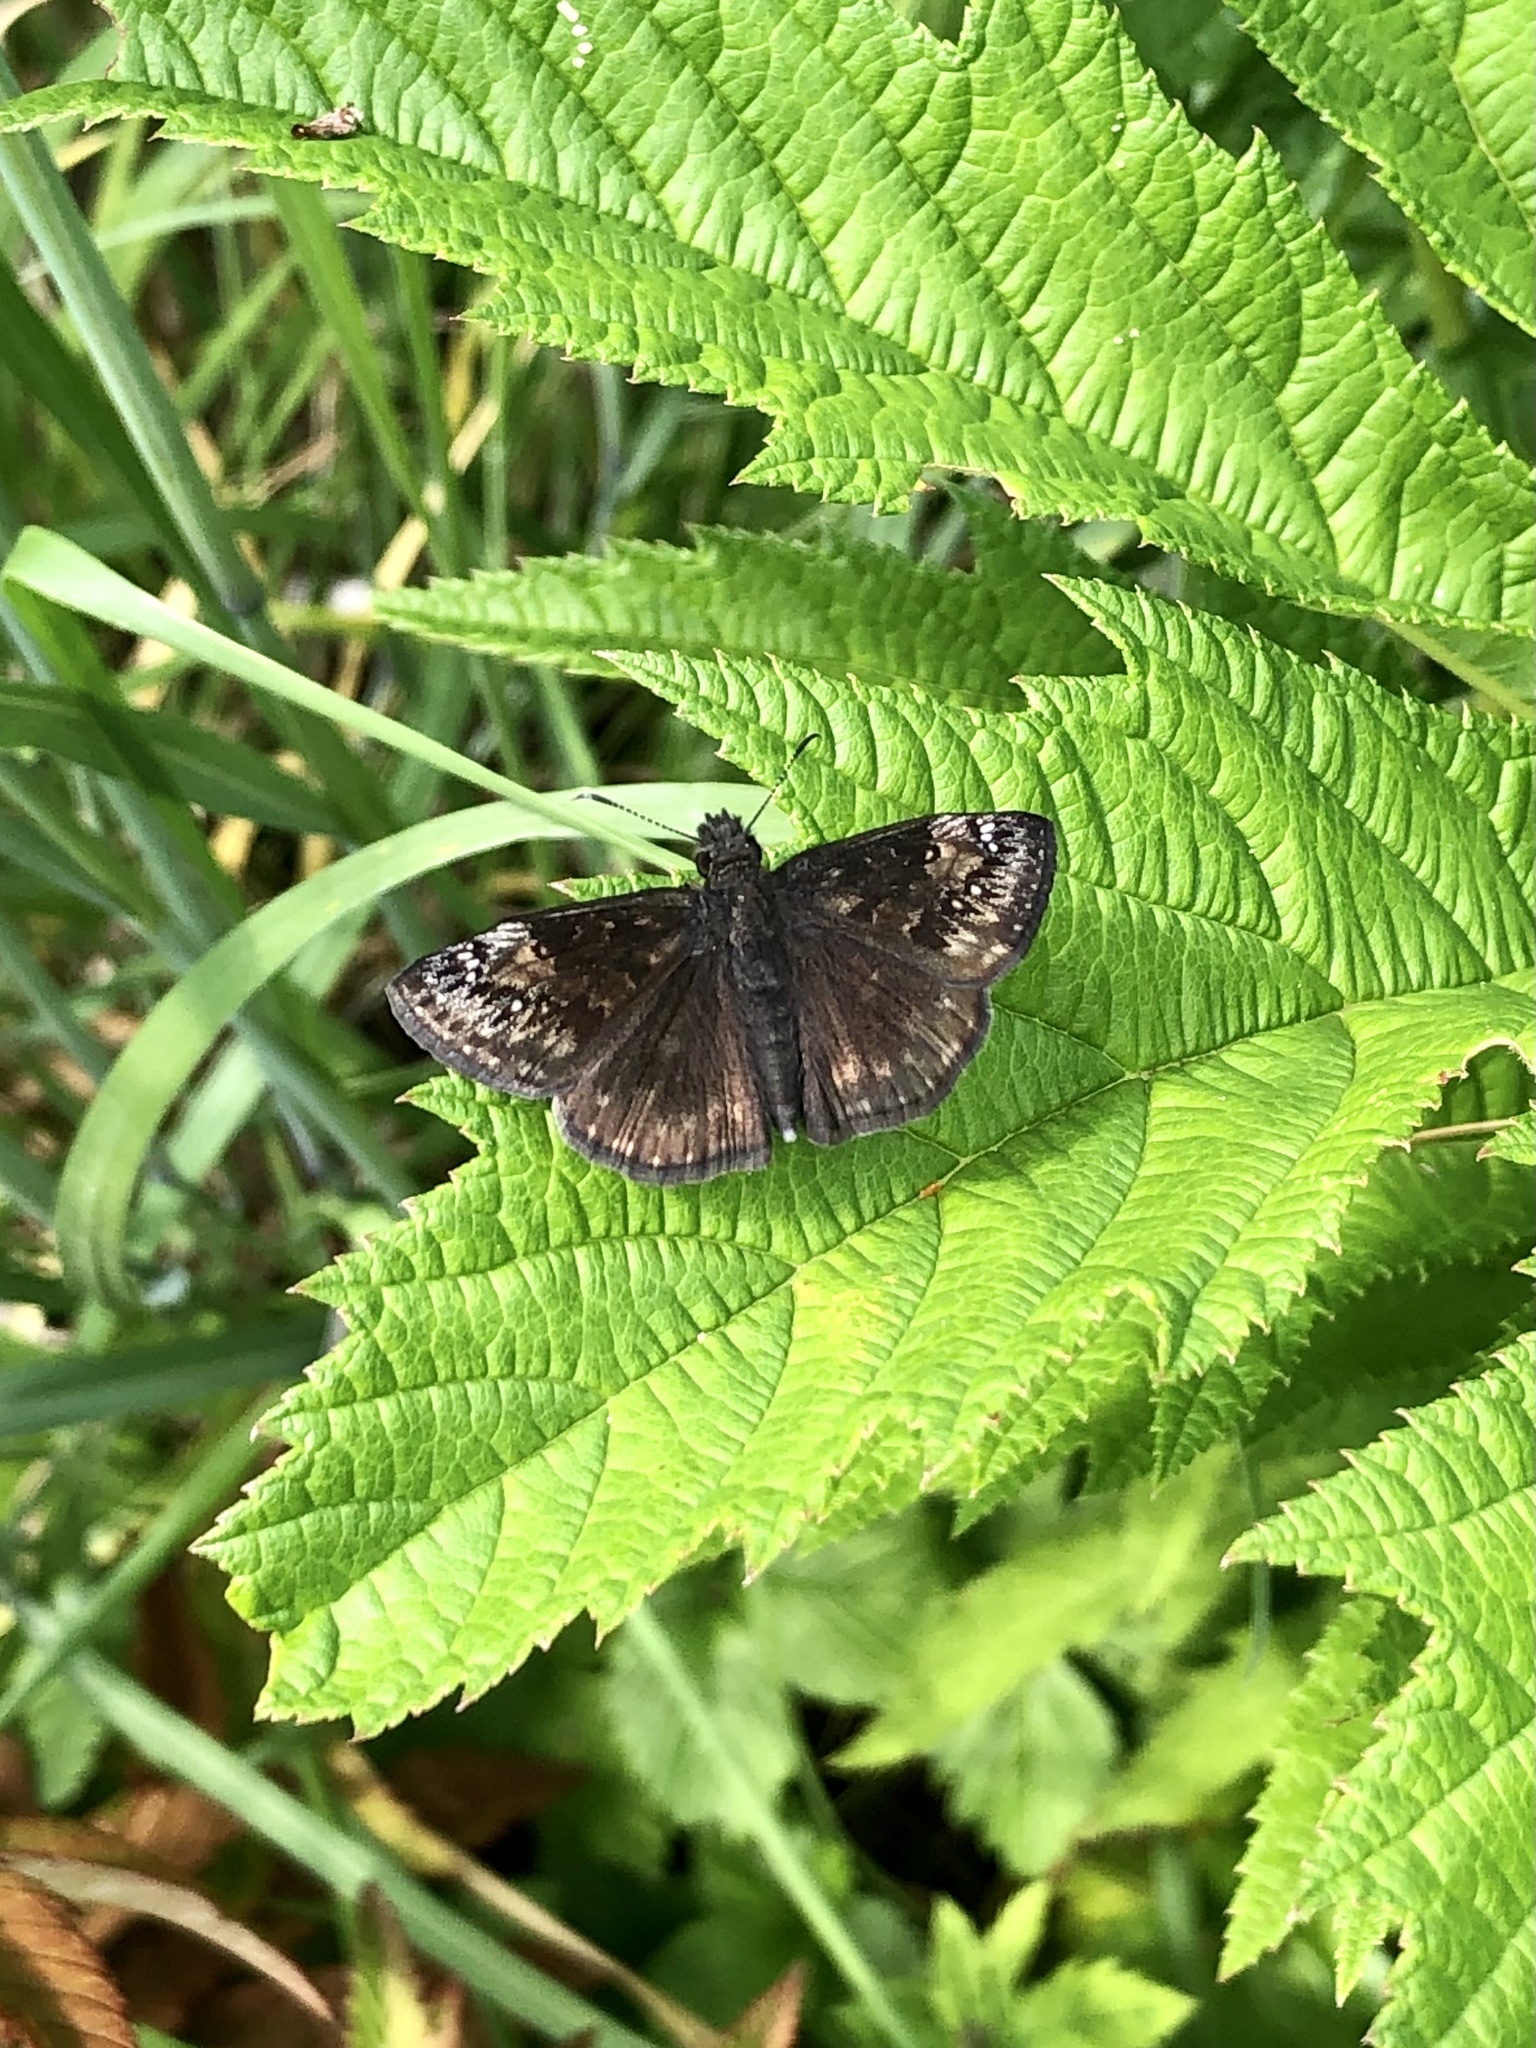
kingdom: Animalia
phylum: Arthropoda
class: Insecta
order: Lepidoptera
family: Hesperiidae
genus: Erynnis
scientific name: Erynnis baptisiae
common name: Wild indigo duskywing
